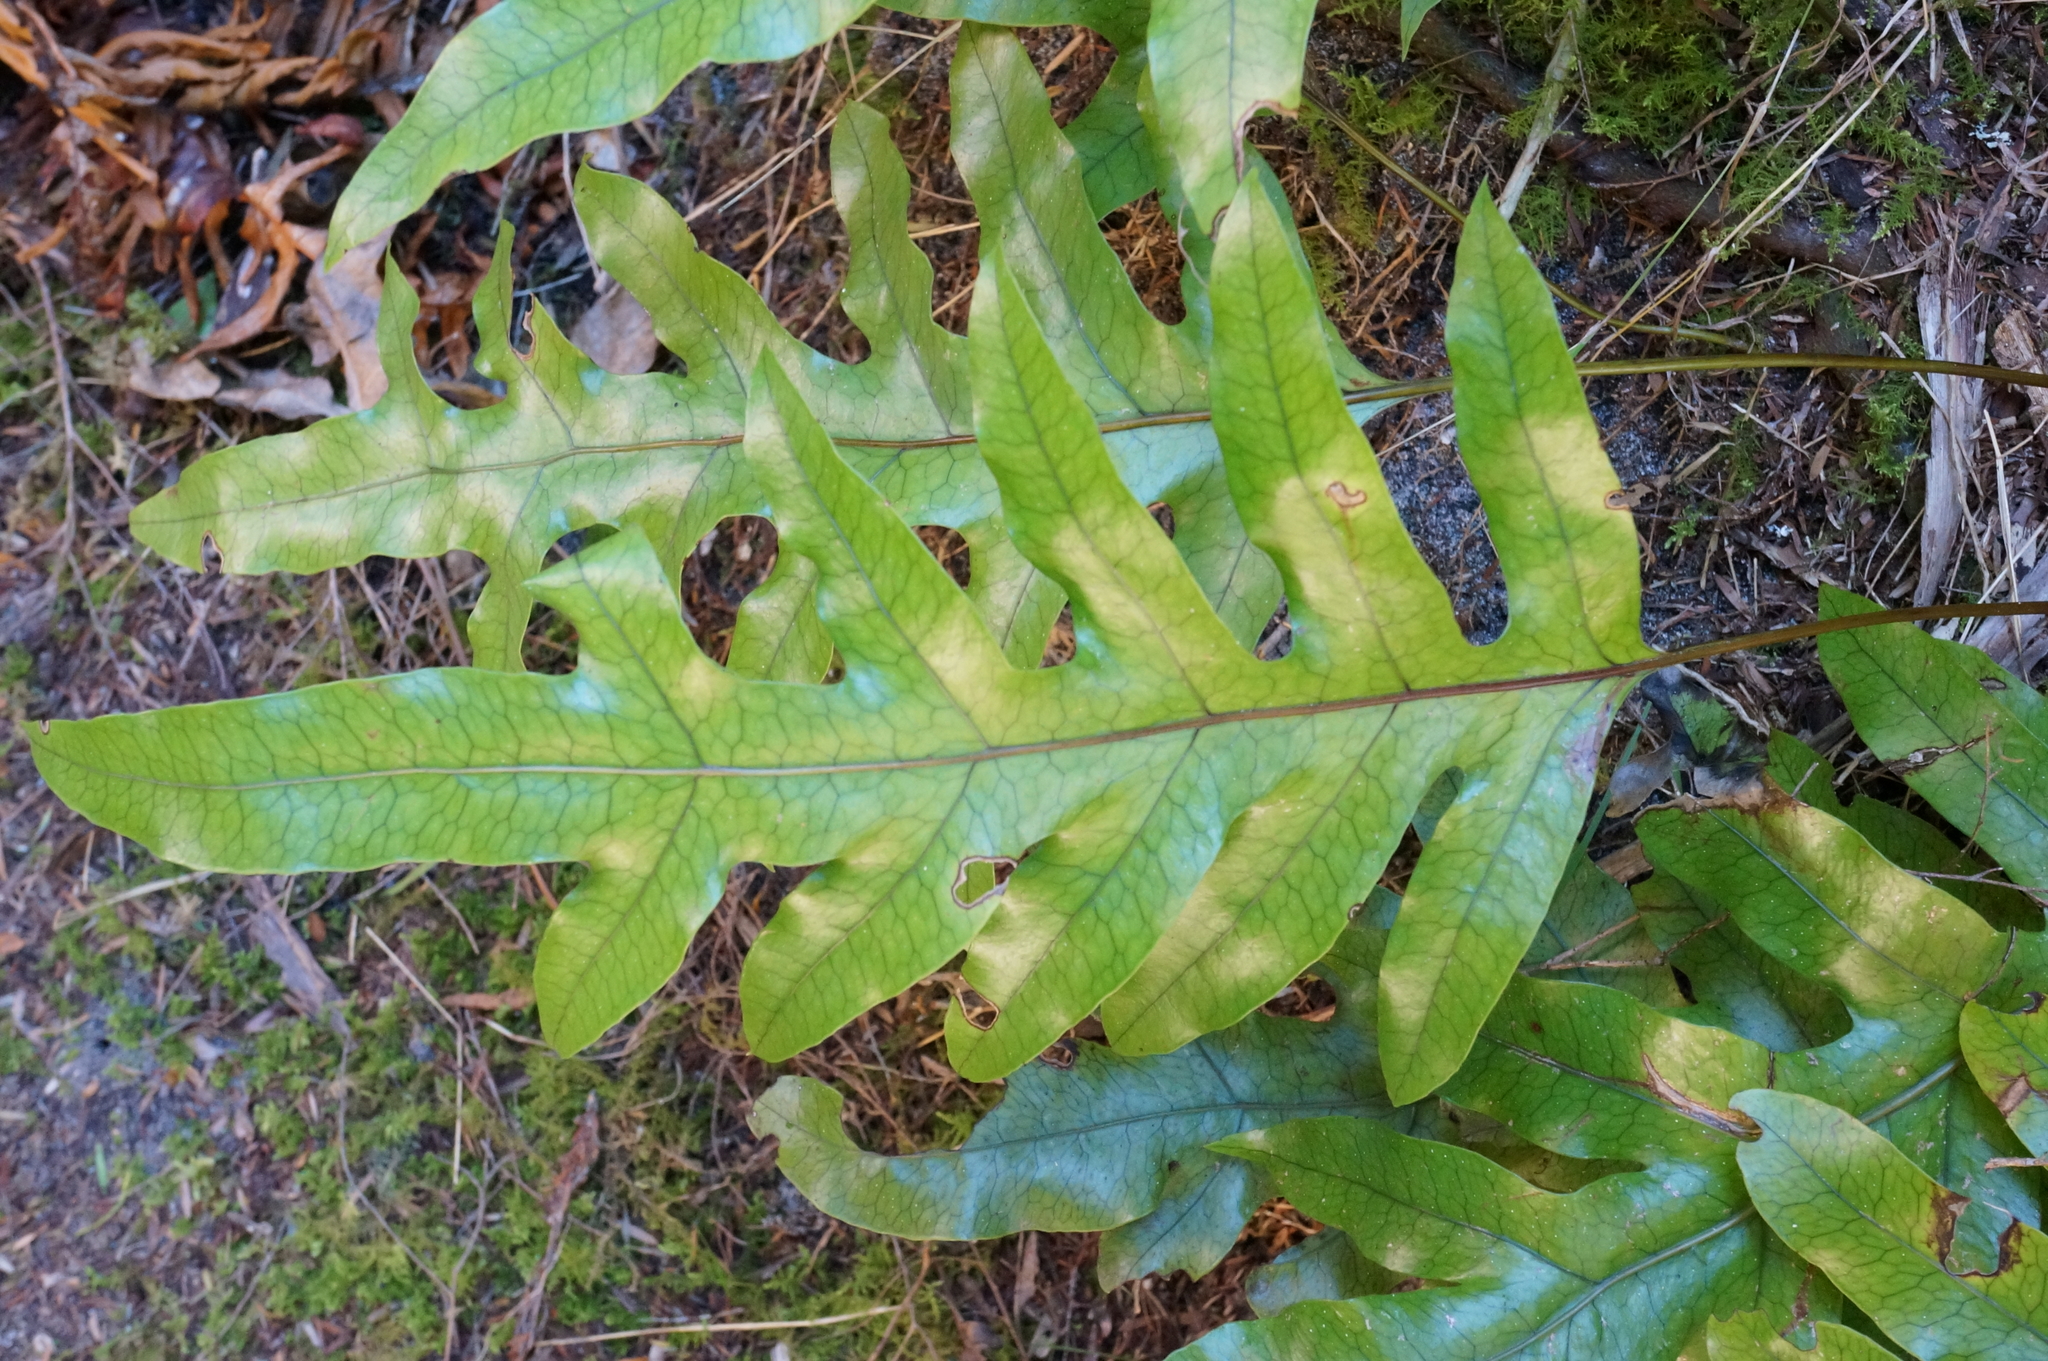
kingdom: Plantae
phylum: Tracheophyta
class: Polypodiopsida
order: Polypodiales
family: Polypodiaceae
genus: Lecanopteris
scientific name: Lecanopteris pustulata
